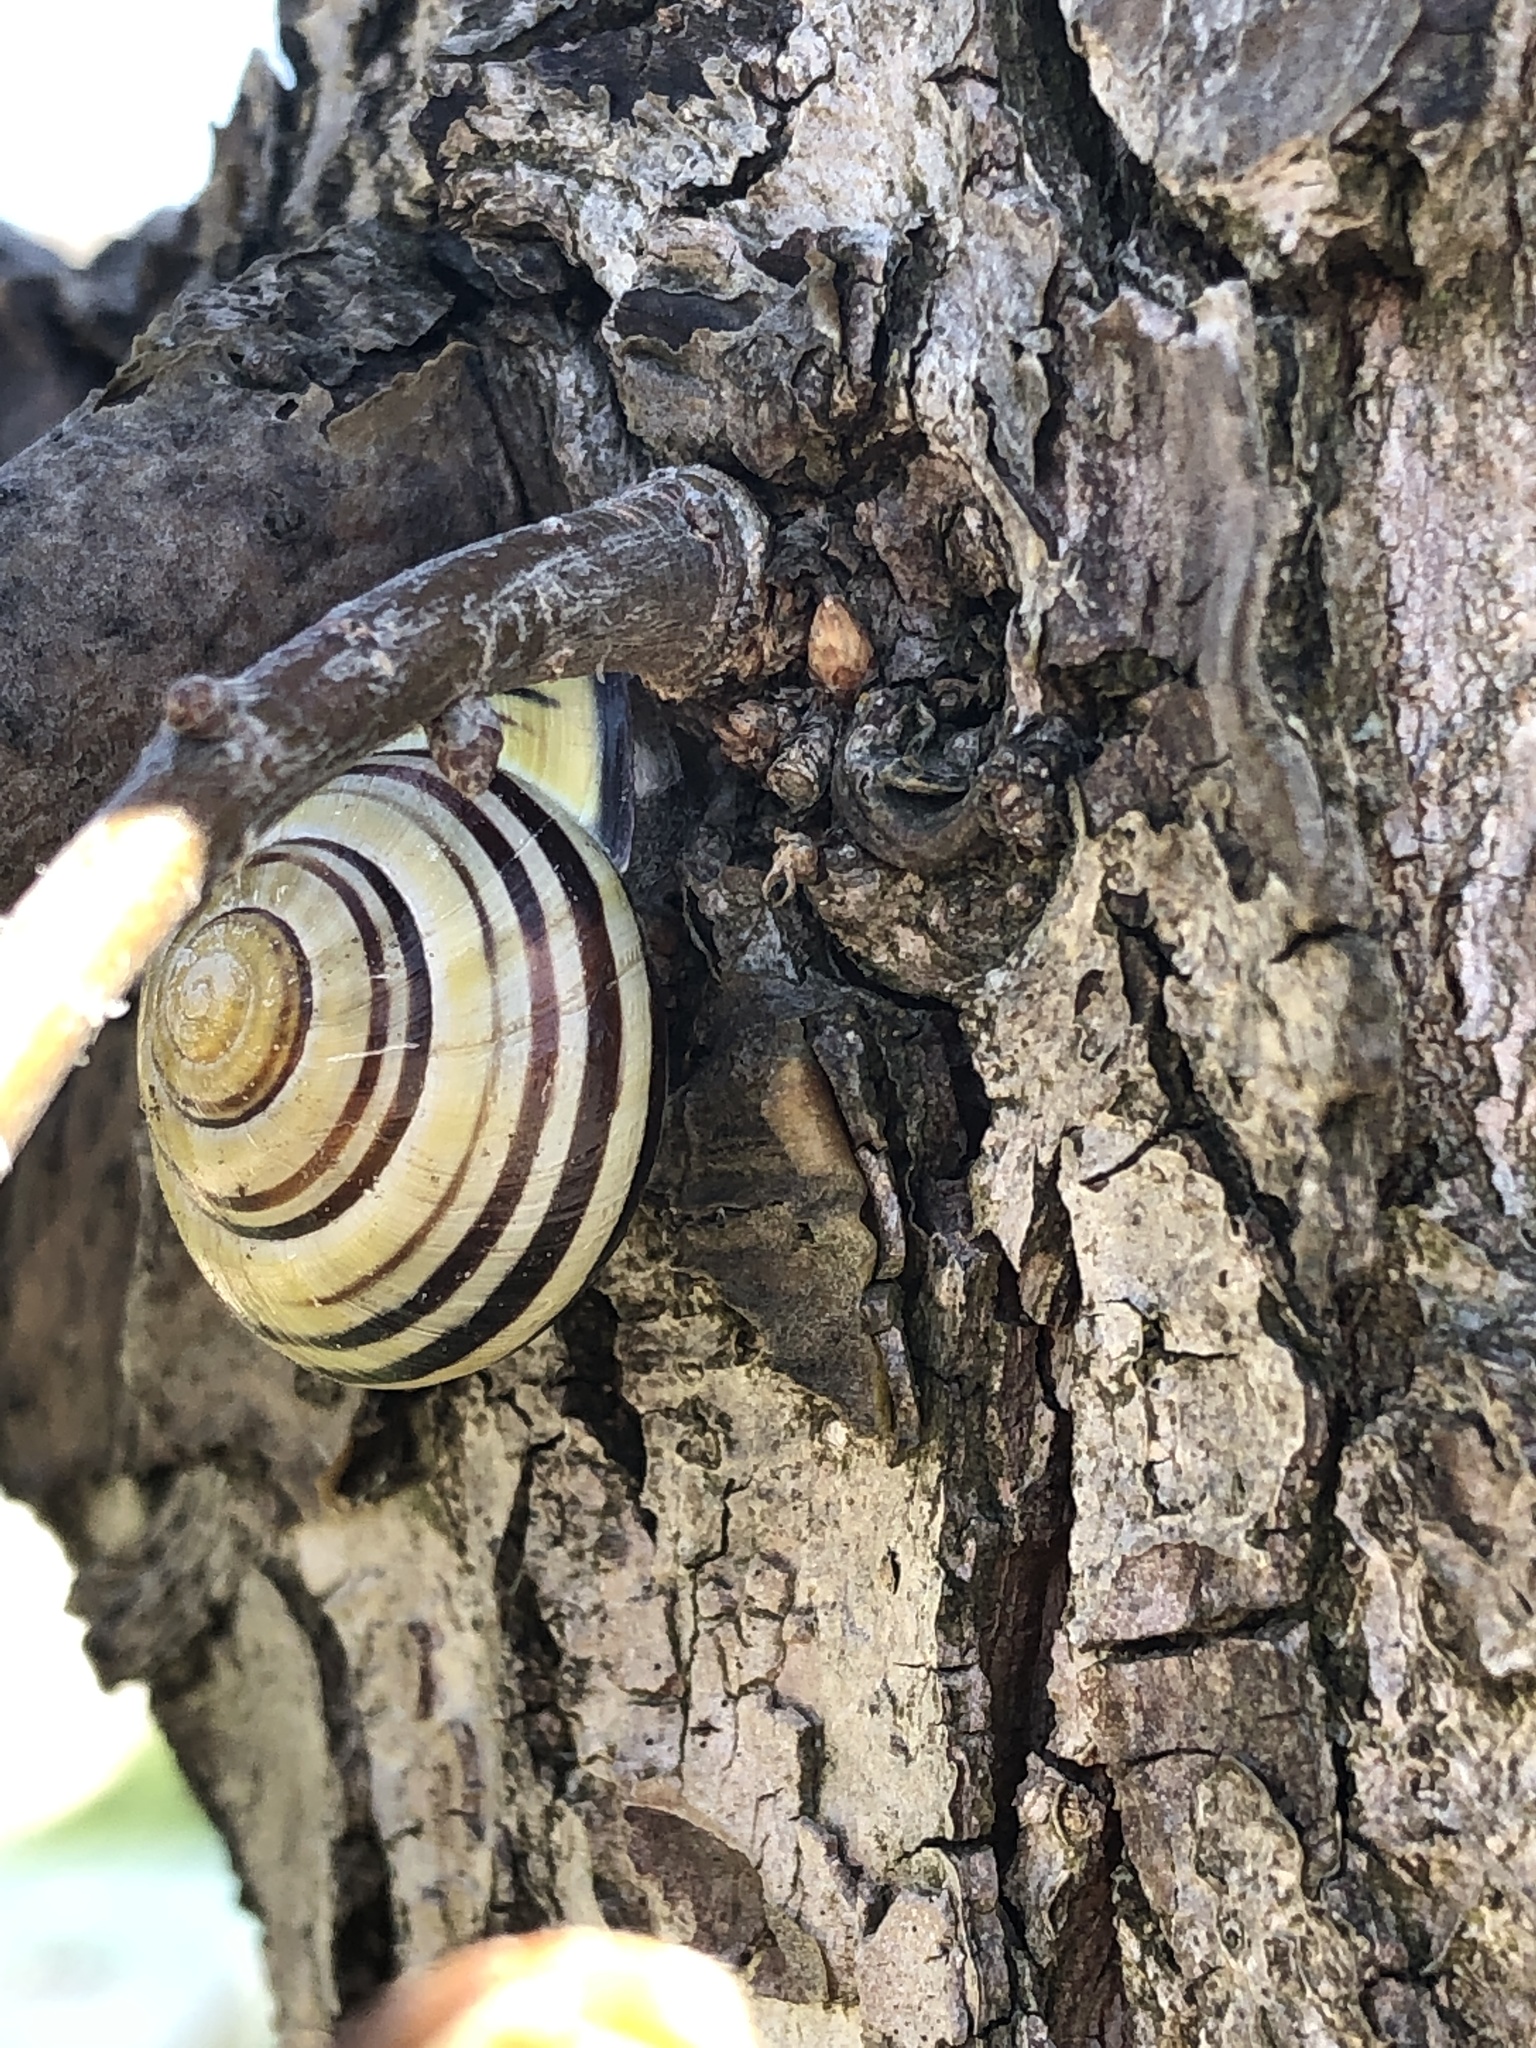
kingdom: Animalia
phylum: Mollusca
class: Gastropoda
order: Stylommatophora
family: Helicidae
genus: Cepaea
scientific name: Cepaea nemoralis
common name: Grovesnail
